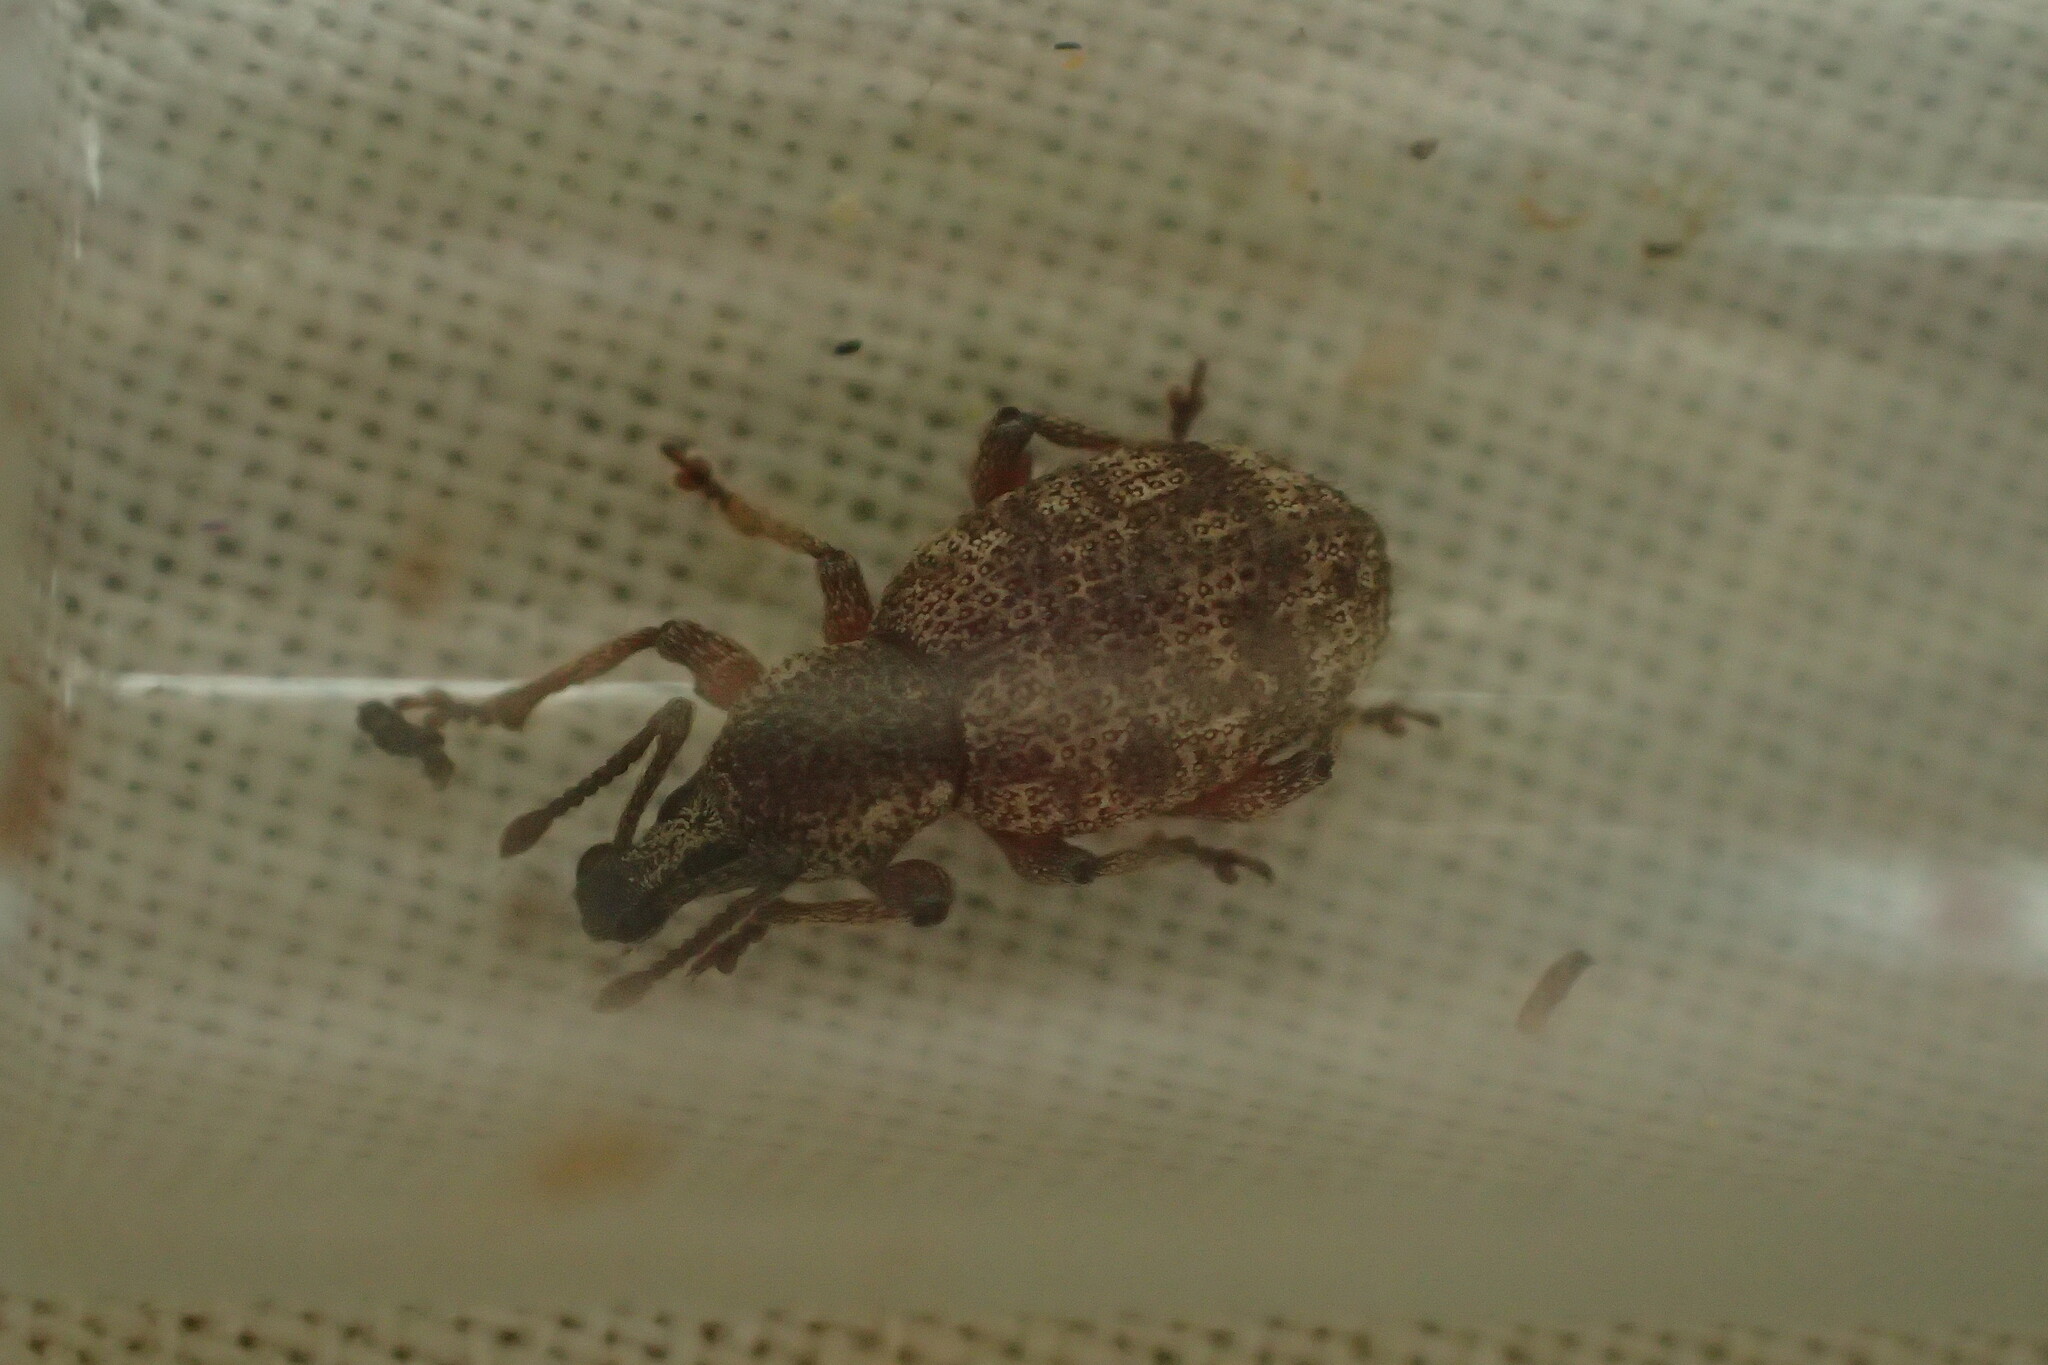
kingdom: Animalia
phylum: Arthropoda
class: Insecta
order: Coleoptera
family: Curculionidae
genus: Otiorhynchus
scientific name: Otiorhynchus singularis
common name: Clay-coloured weevil
